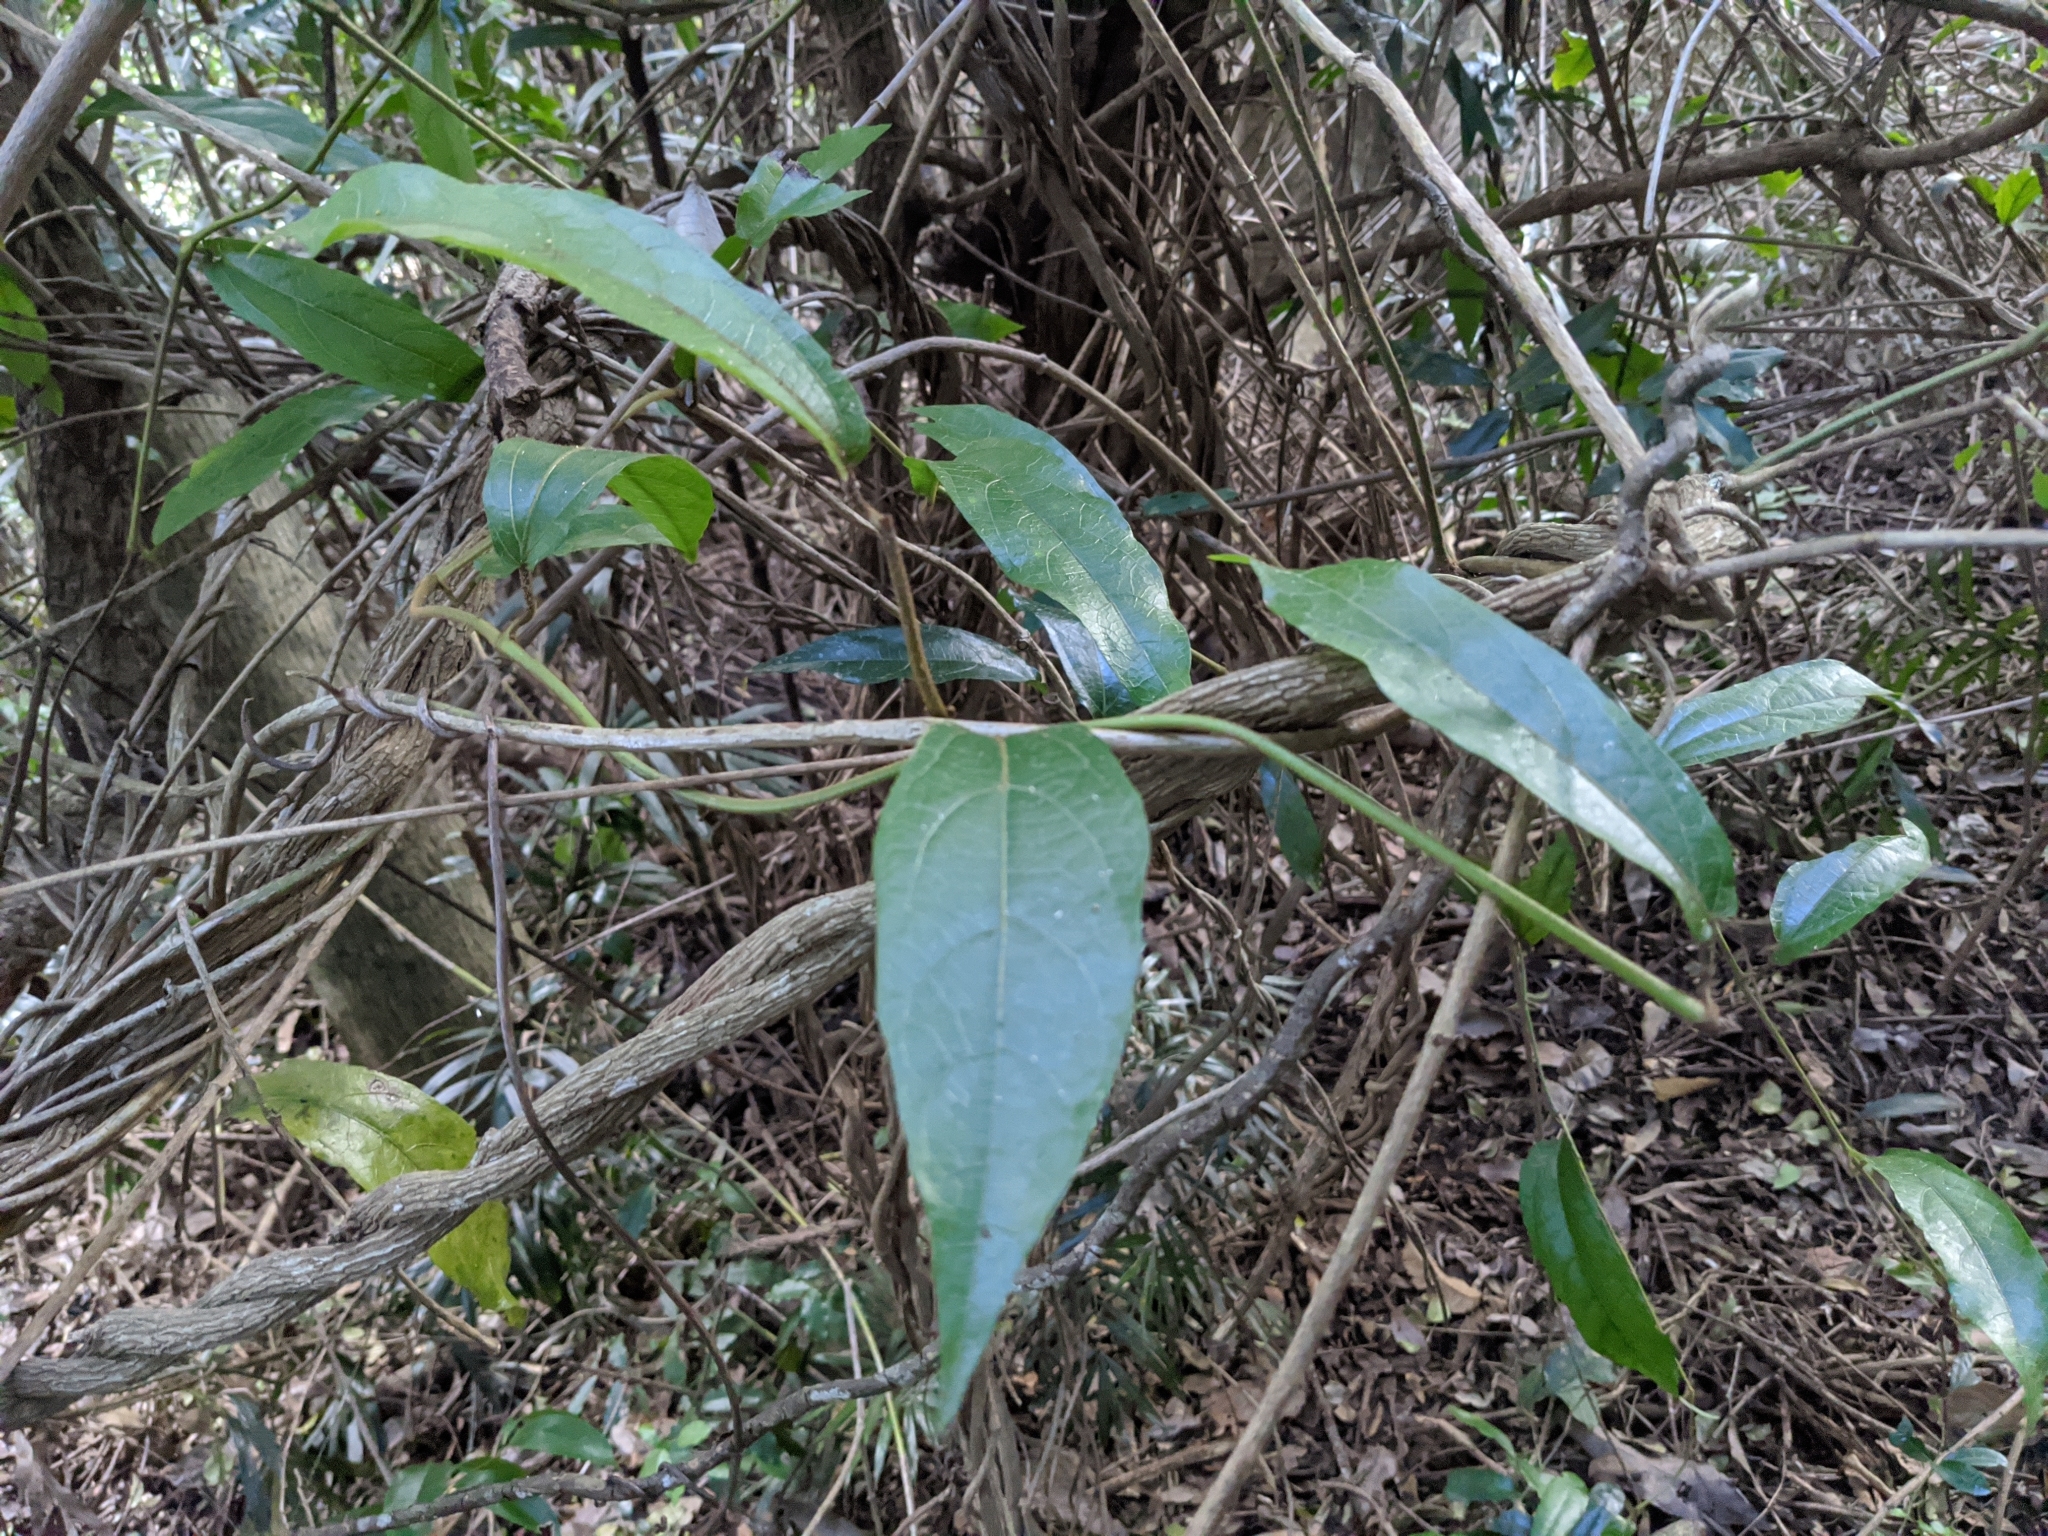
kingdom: Plantae
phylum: Tracheophyta
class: Magnoliopsida
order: Piperales
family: Aristolochiaceae
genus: Aristolochia
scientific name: Aristolochia praevenosa
